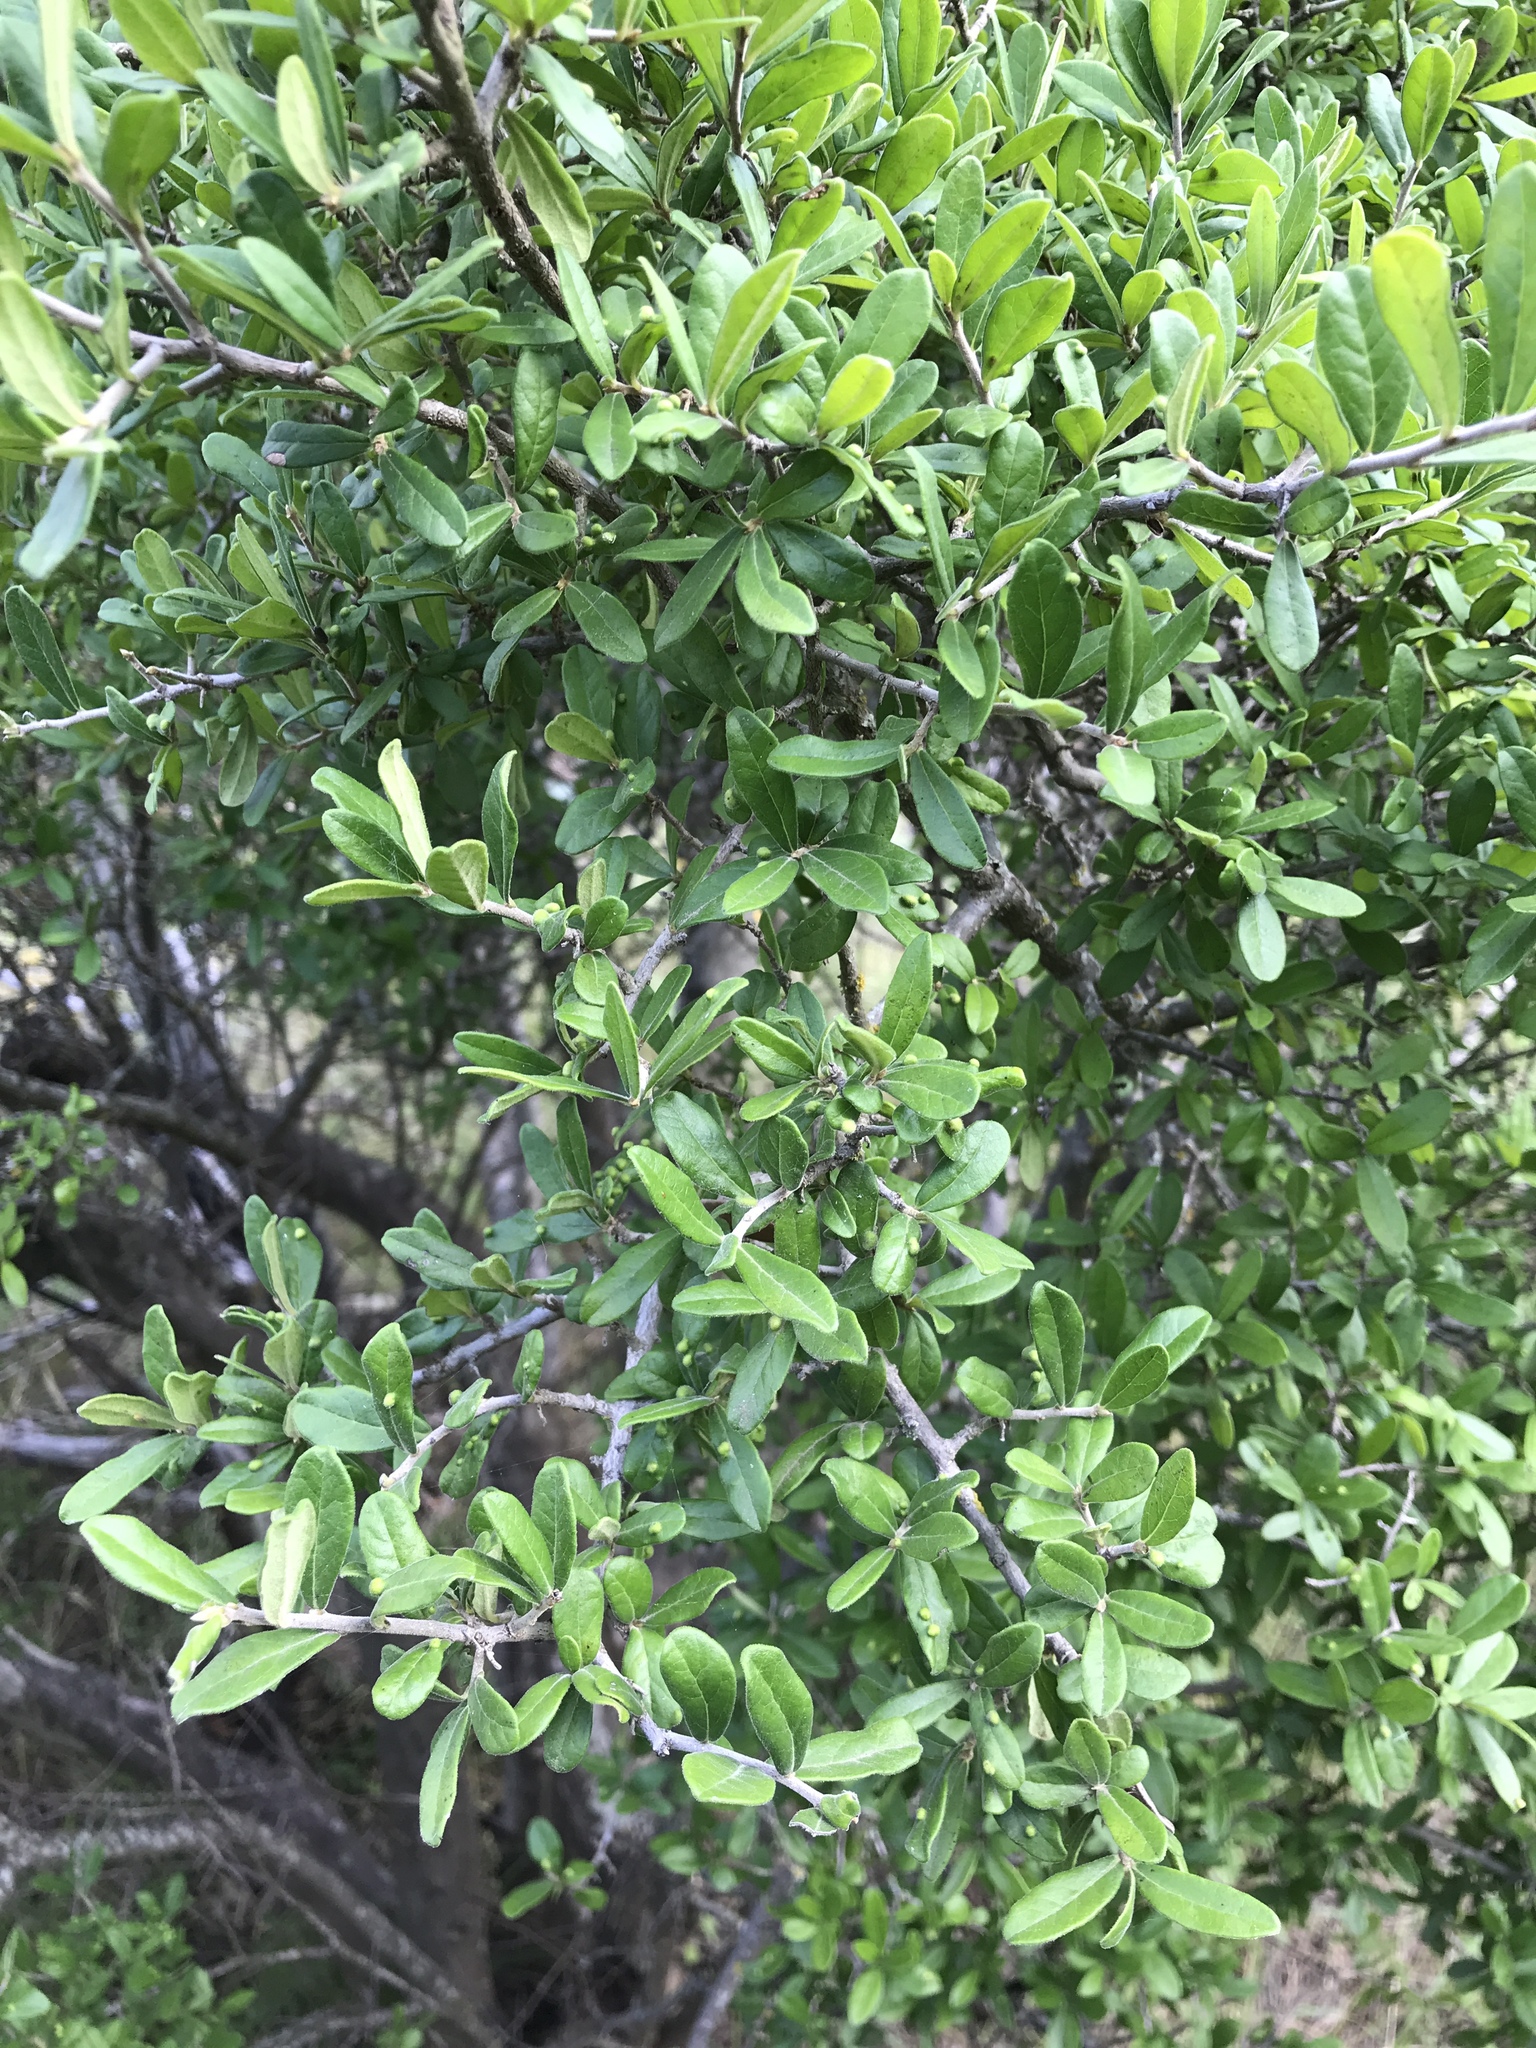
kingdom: Plantae
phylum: Tracheophyta
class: Magnoliopsida
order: Ericales
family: Ebenaceae
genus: Diospyros
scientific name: Diospyros texana
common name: Texas persimmon
